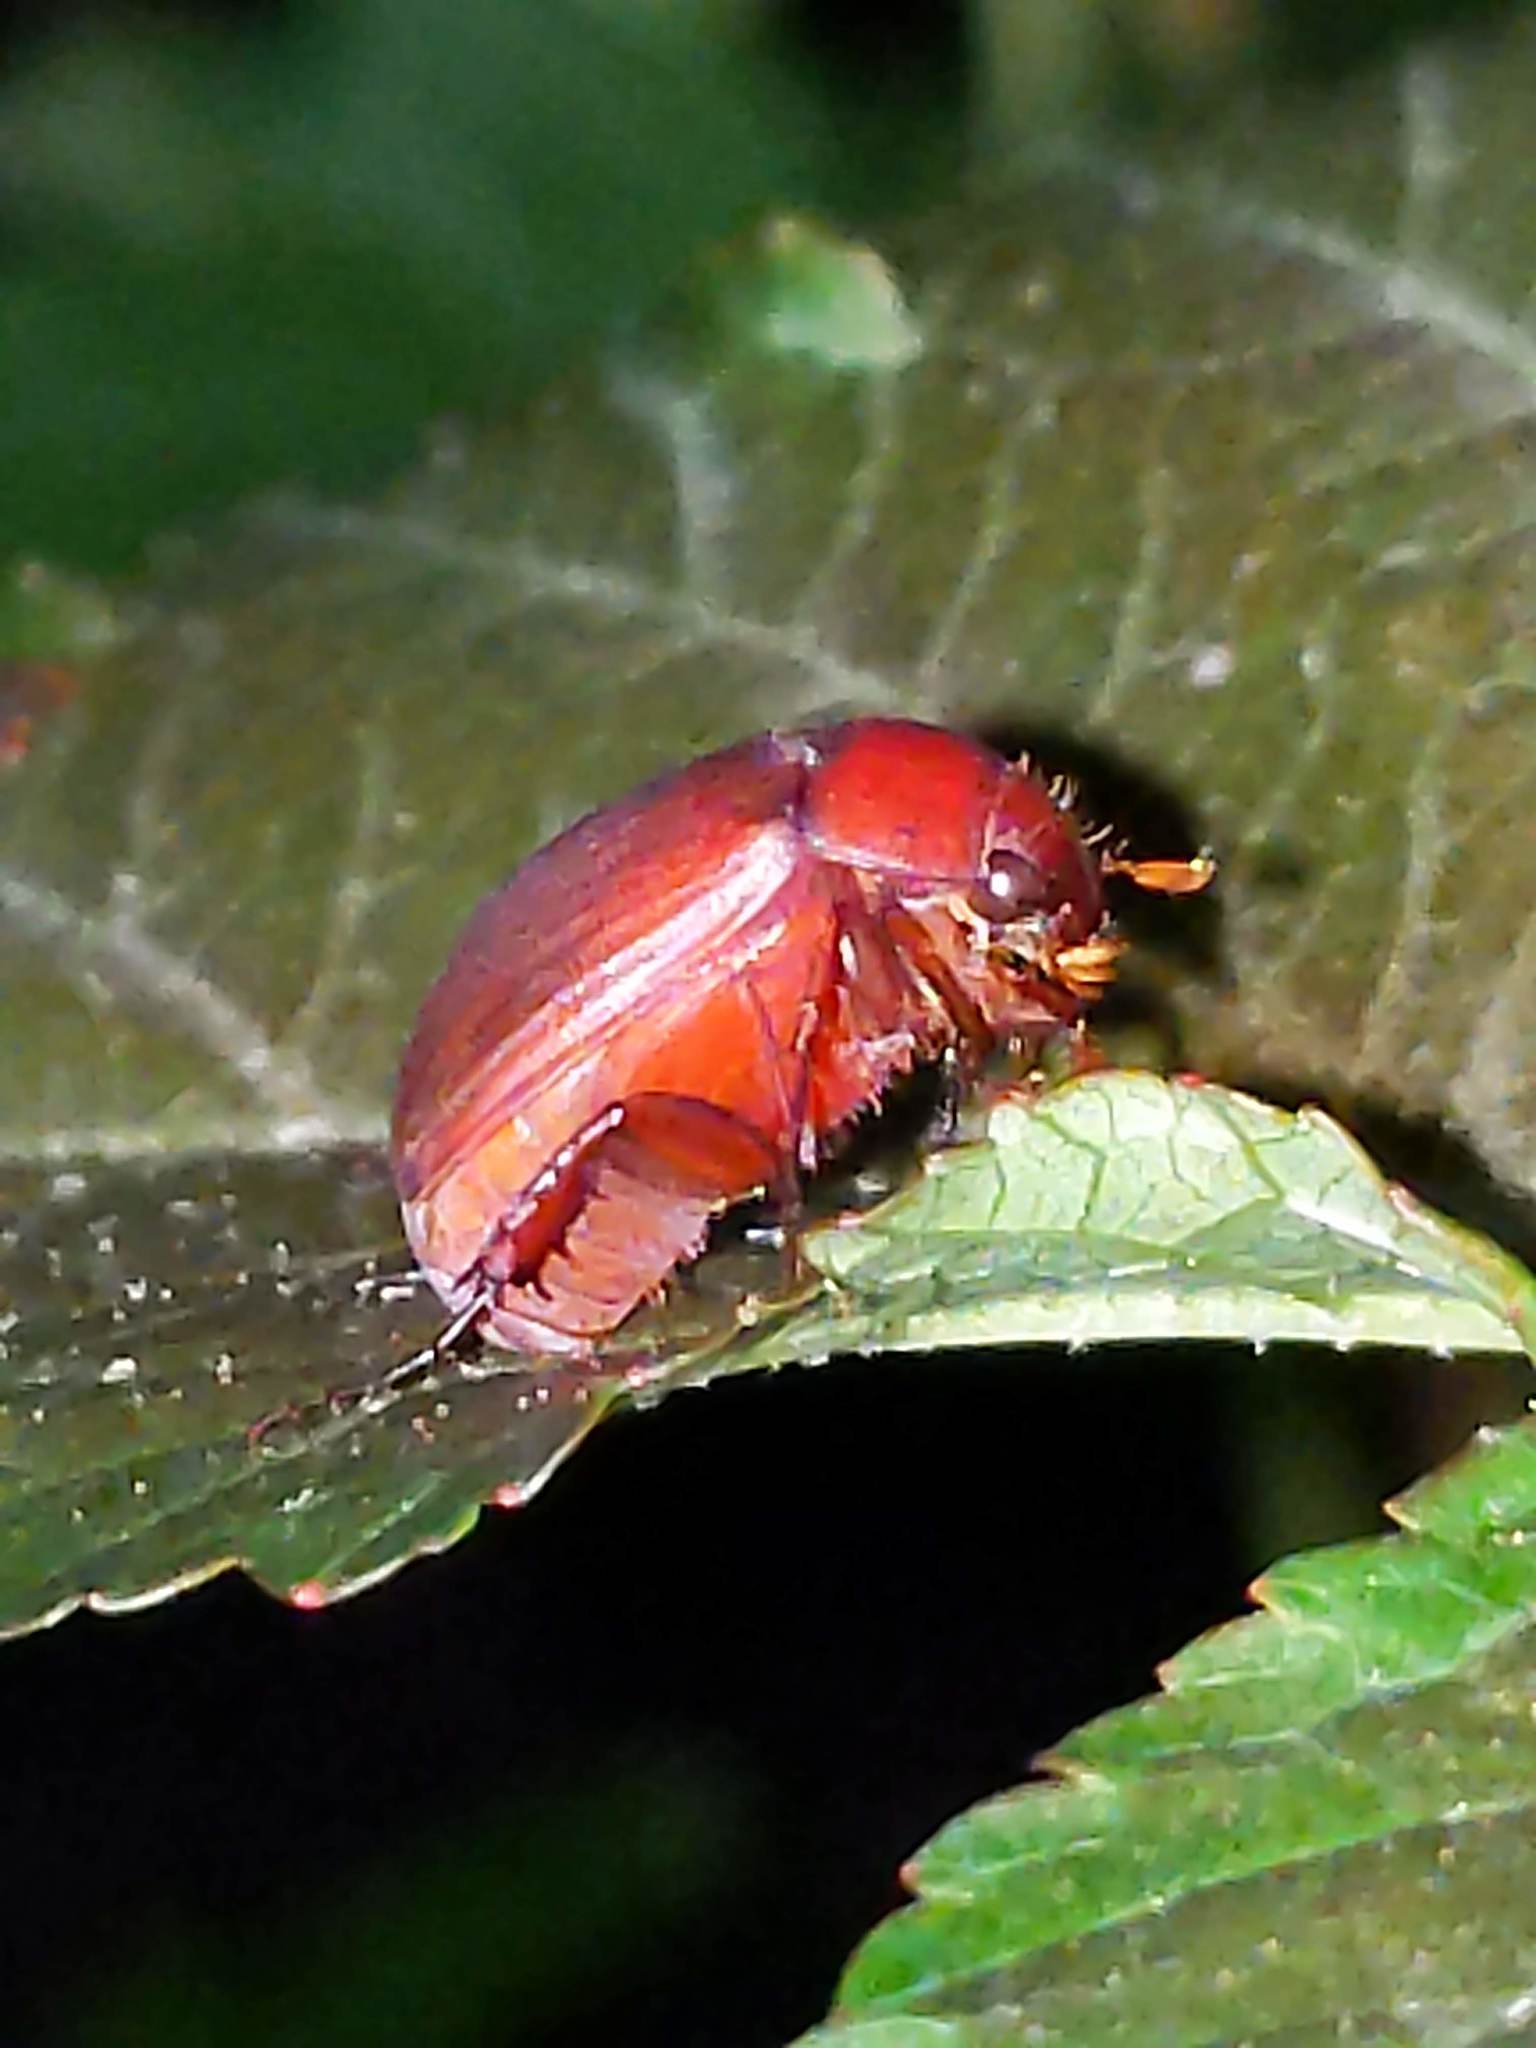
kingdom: Animalia
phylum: Arthropoda
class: Insecta
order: Coleoptera
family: Scarabaeidae
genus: Maladera
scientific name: Maladera formosae
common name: Asiatic garden beetle
